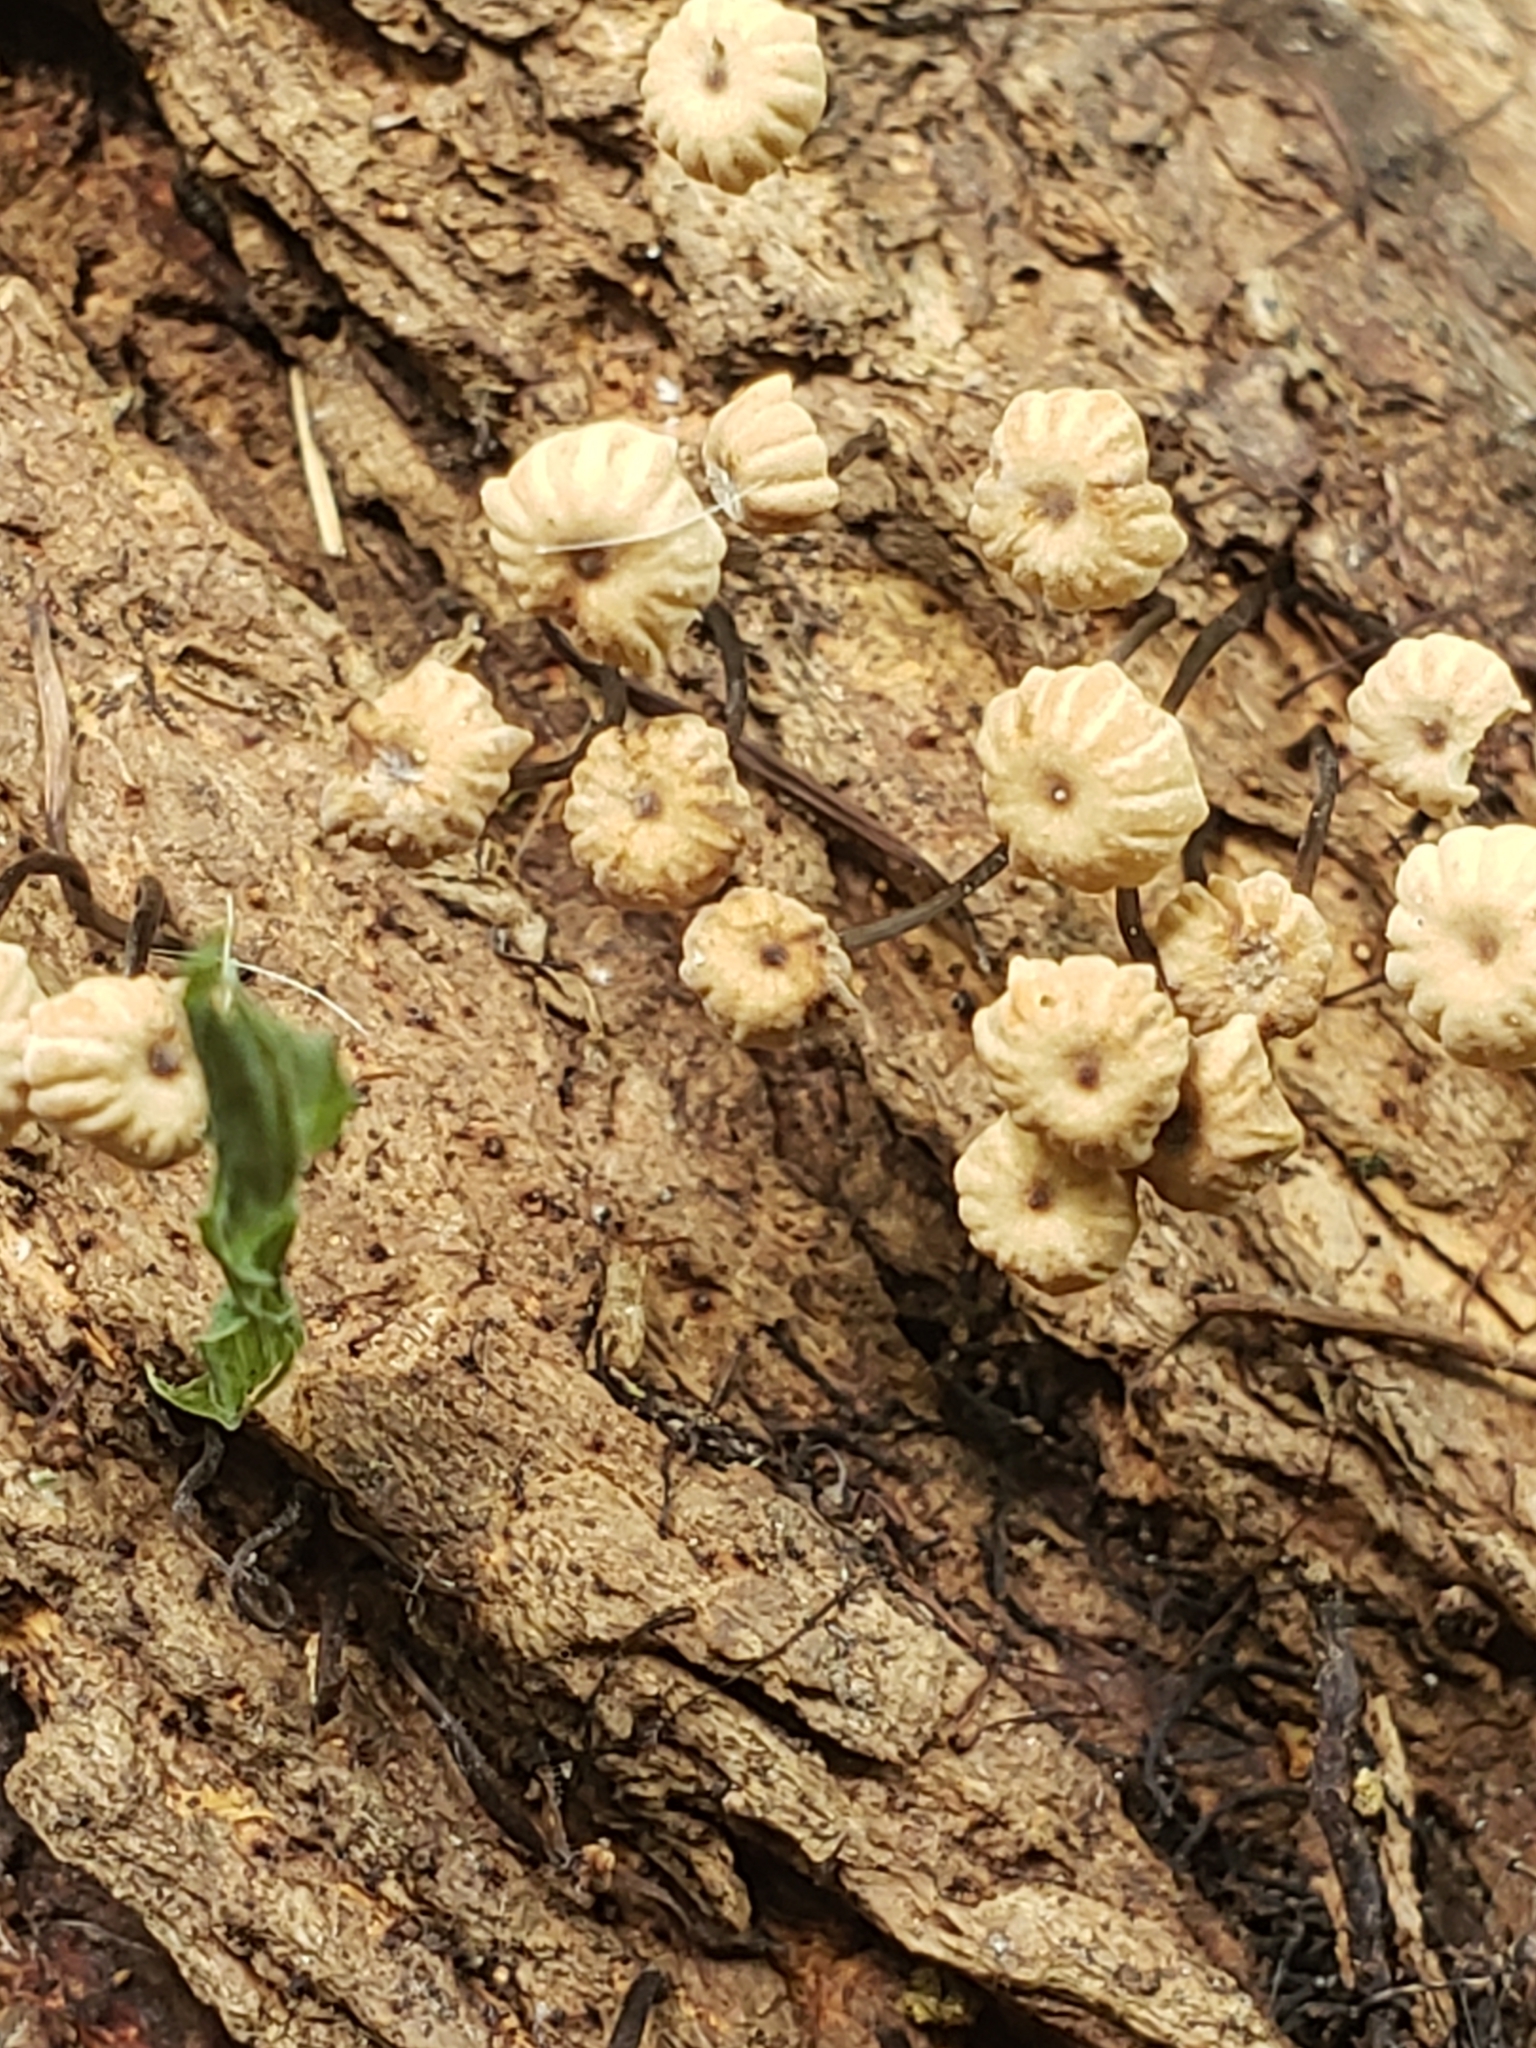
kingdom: Fungi
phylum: Basidiomycota
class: Agaricomycetes
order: Agaricales
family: Marasmiaceae
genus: Marasmius
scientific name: Marasmius rotula
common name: Collared parachute
